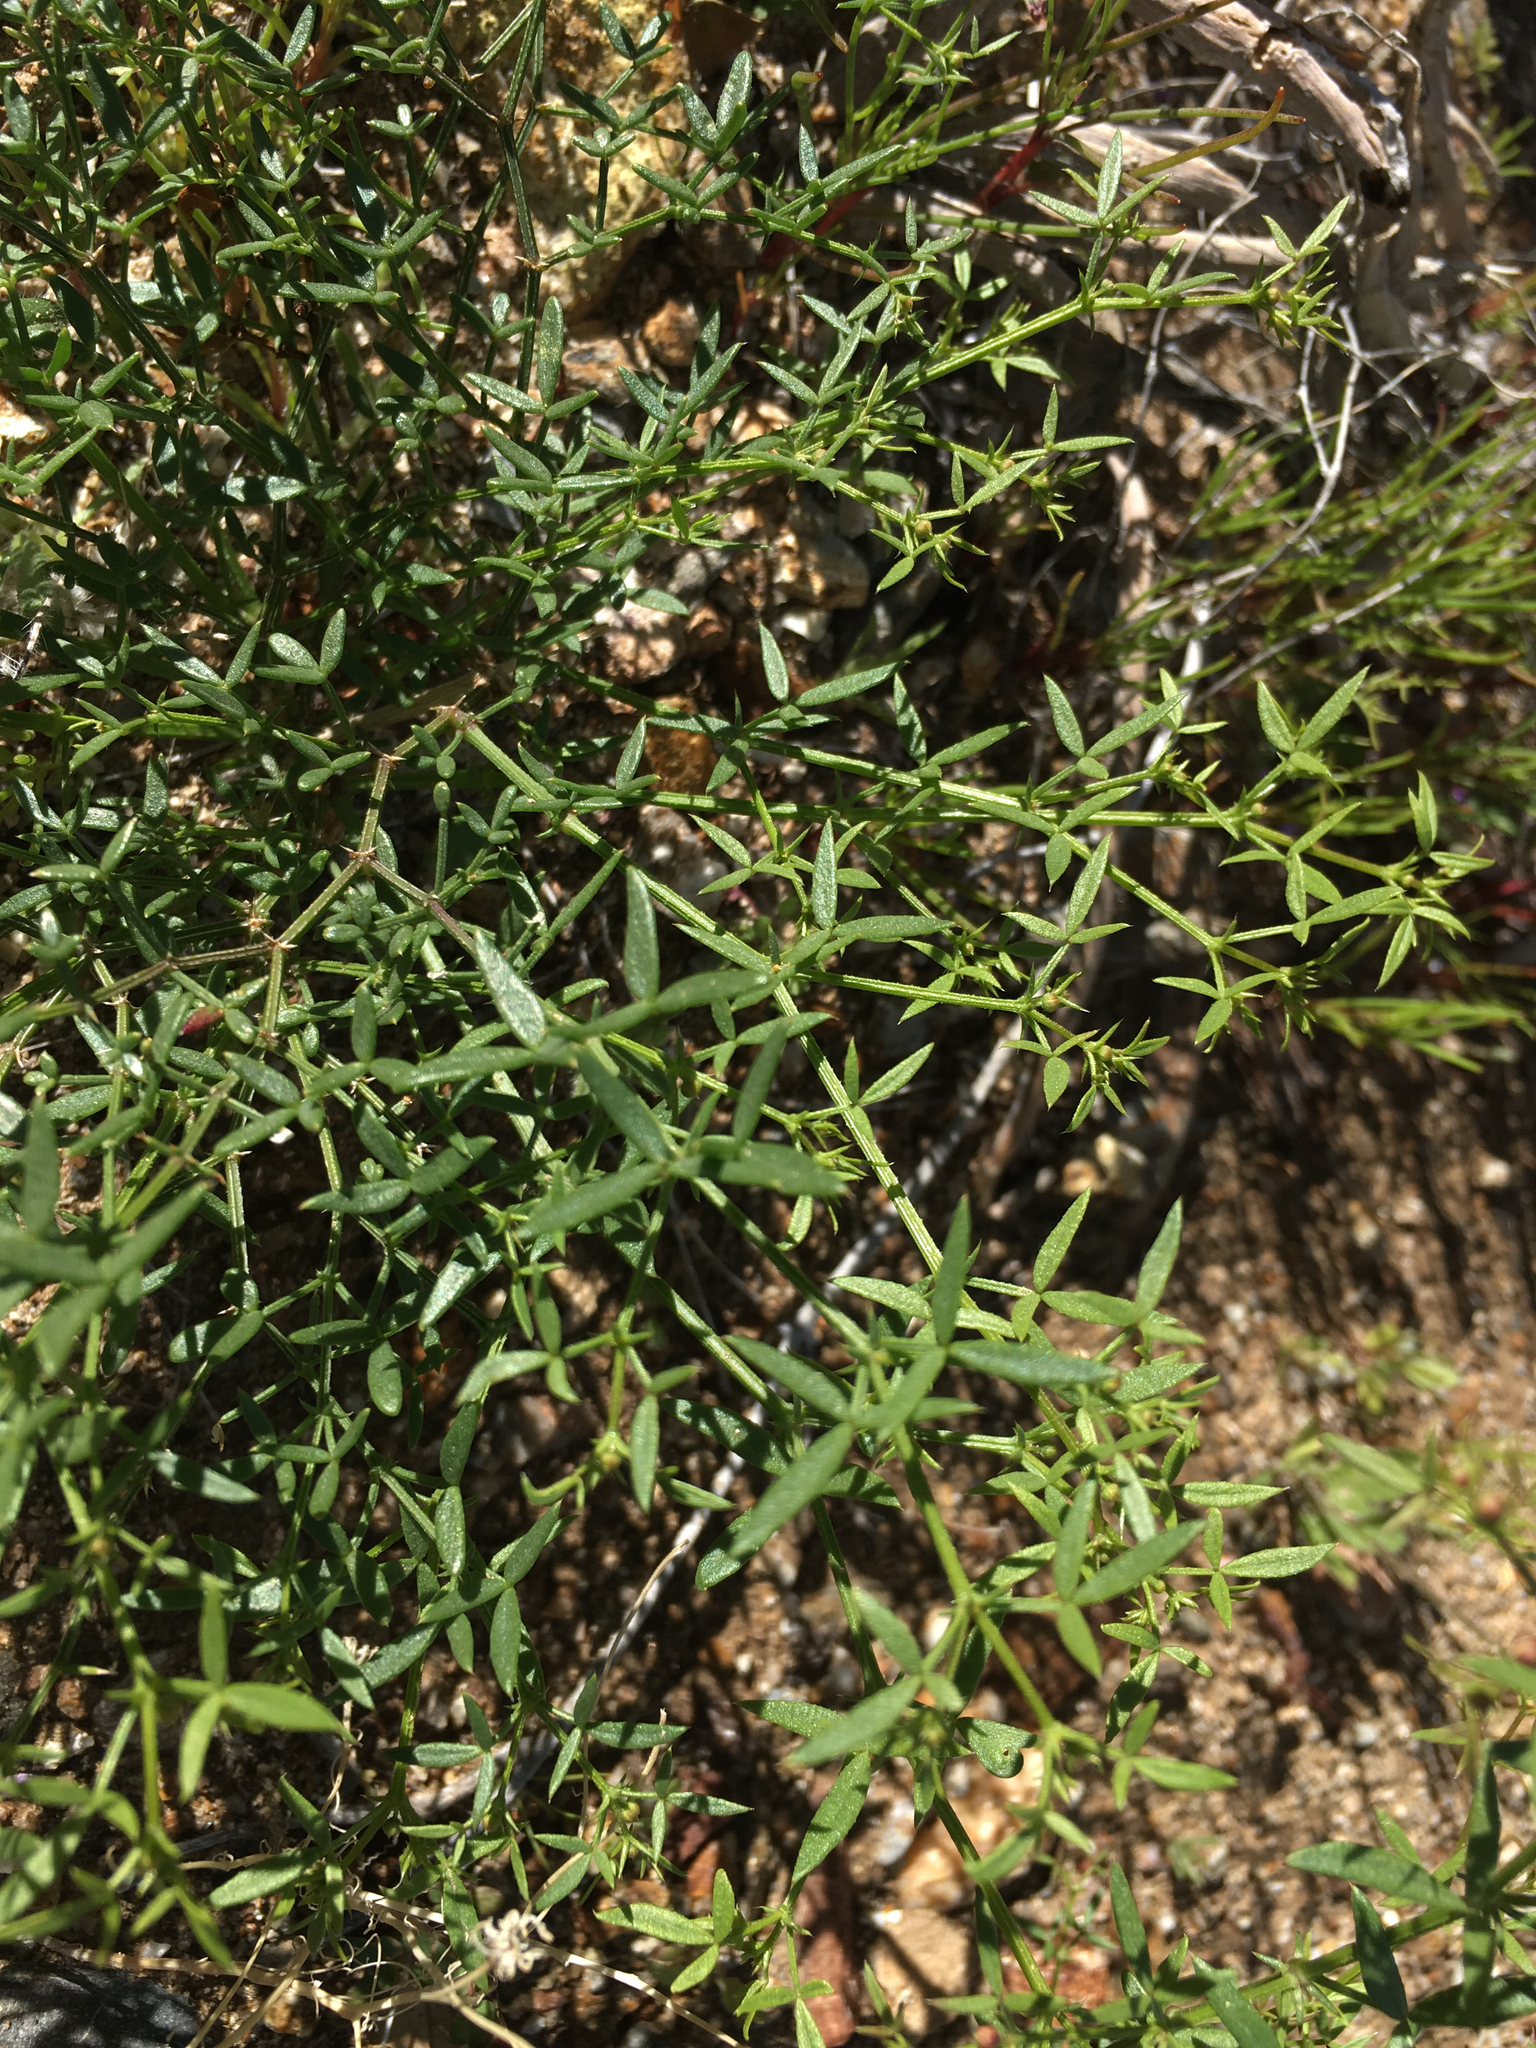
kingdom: Plantae
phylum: Tracheophyta
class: Magnoliopsida
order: Zygophyllales
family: Zygophyllaceae
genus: Fagonia
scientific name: Fagonia laevis
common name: California fagonbush
